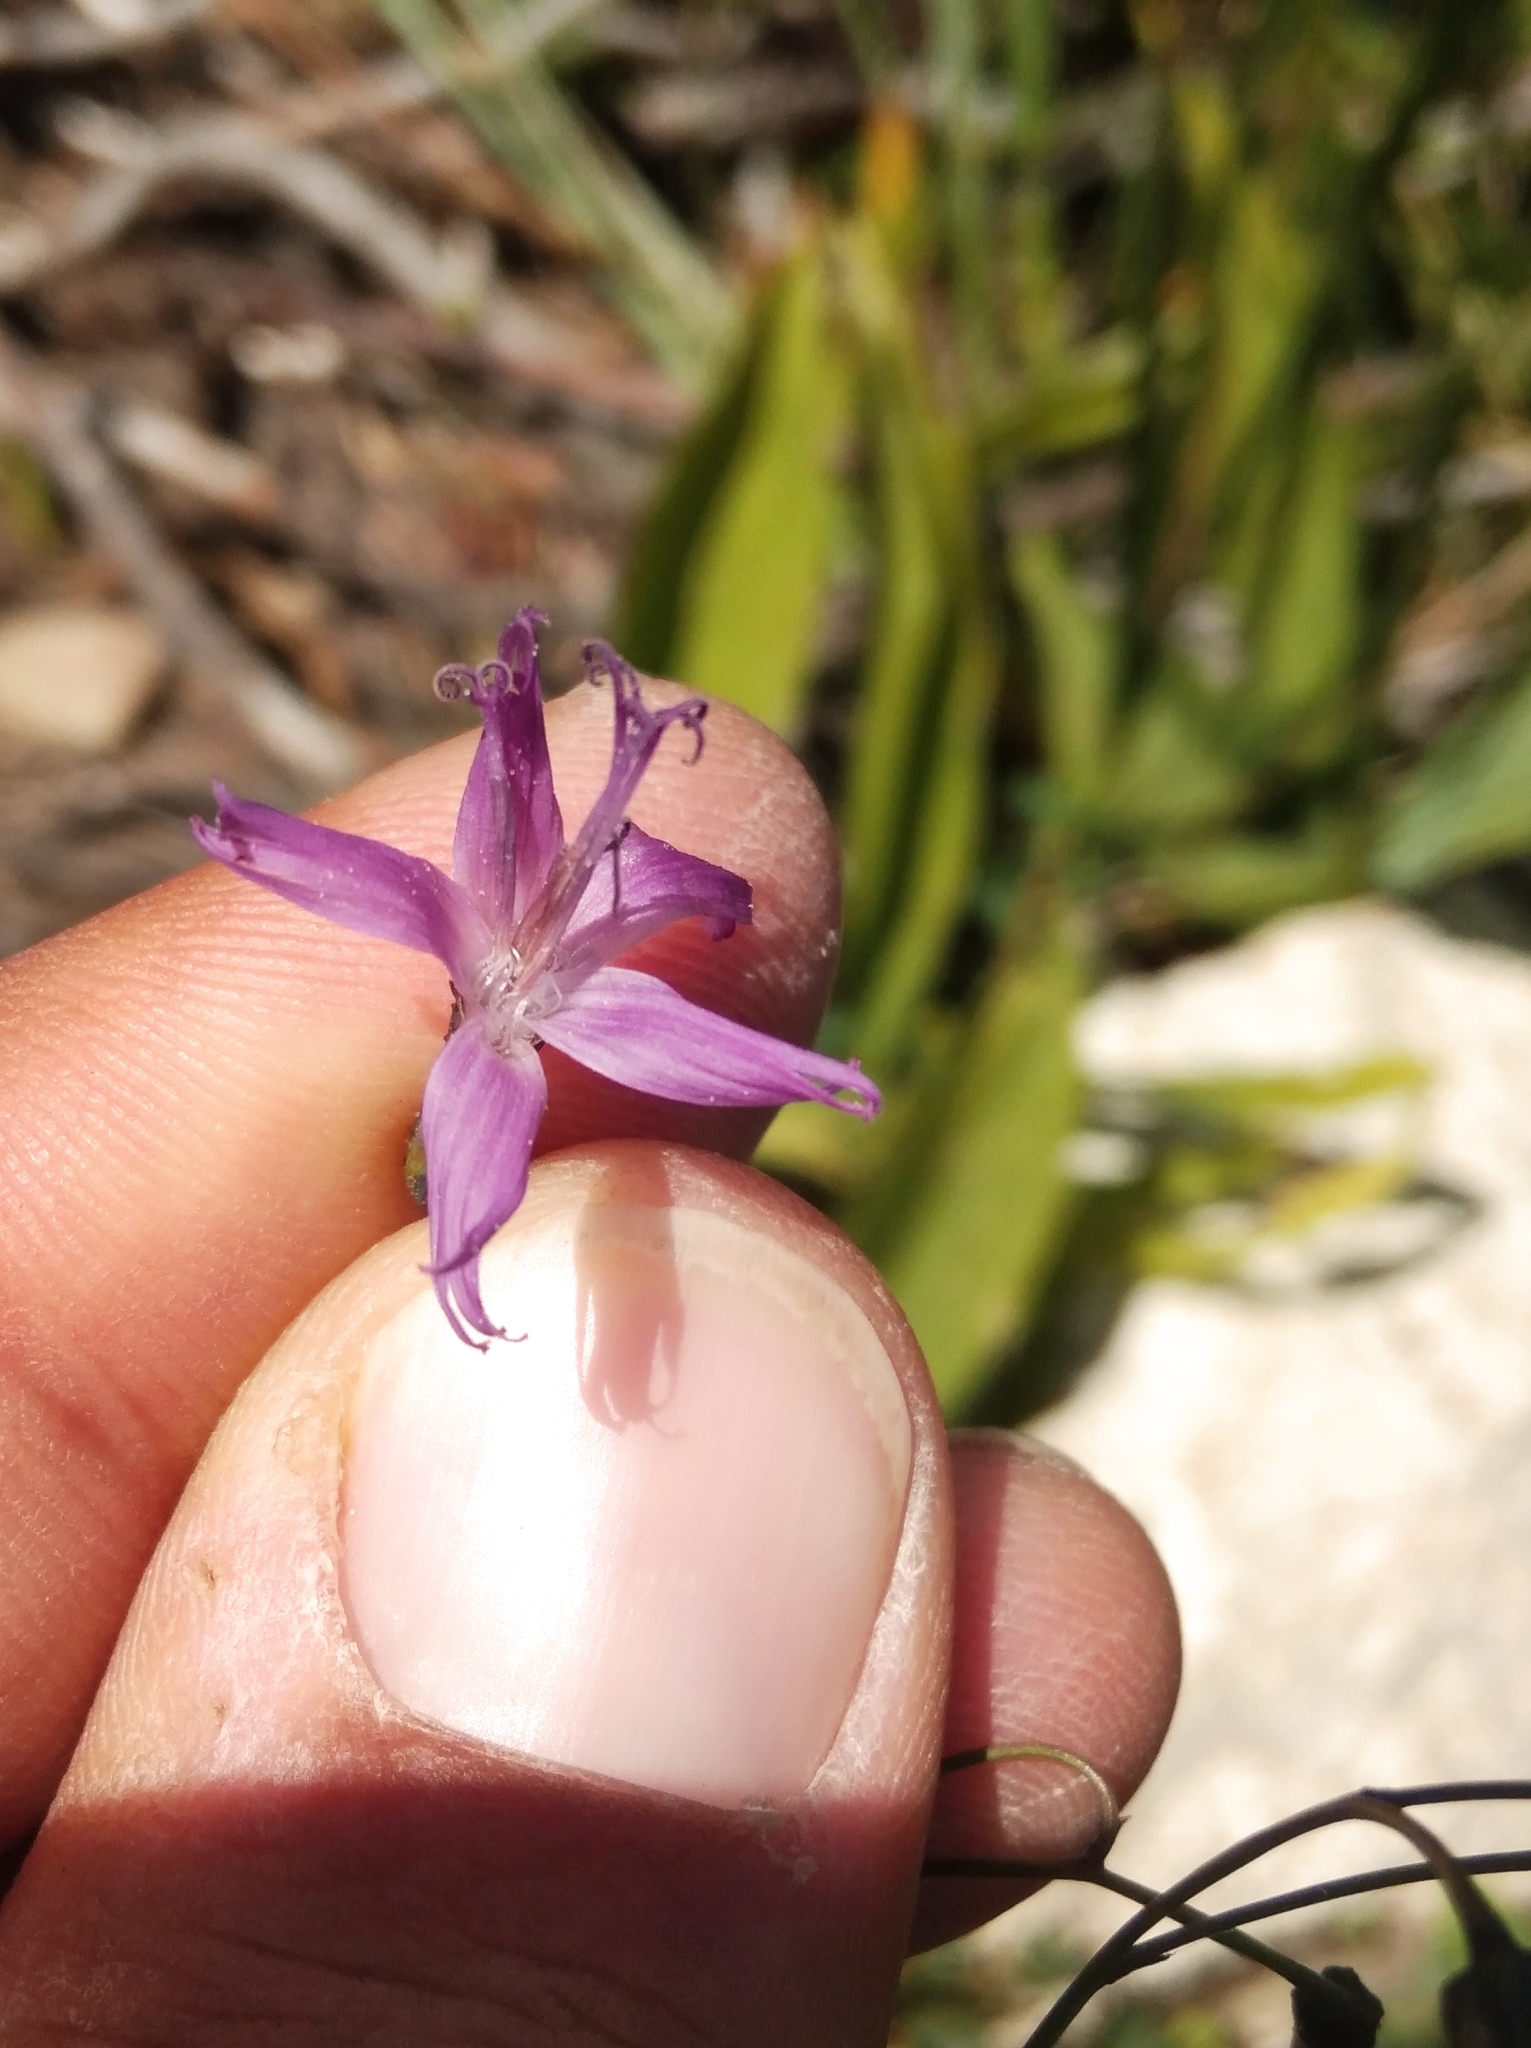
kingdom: Plantae
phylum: Tracheophyta
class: Magnoliopsida
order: Asterales
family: Asteraceae
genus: Prenanthes
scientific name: Prenanthes purpurea
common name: Purple lettuce
